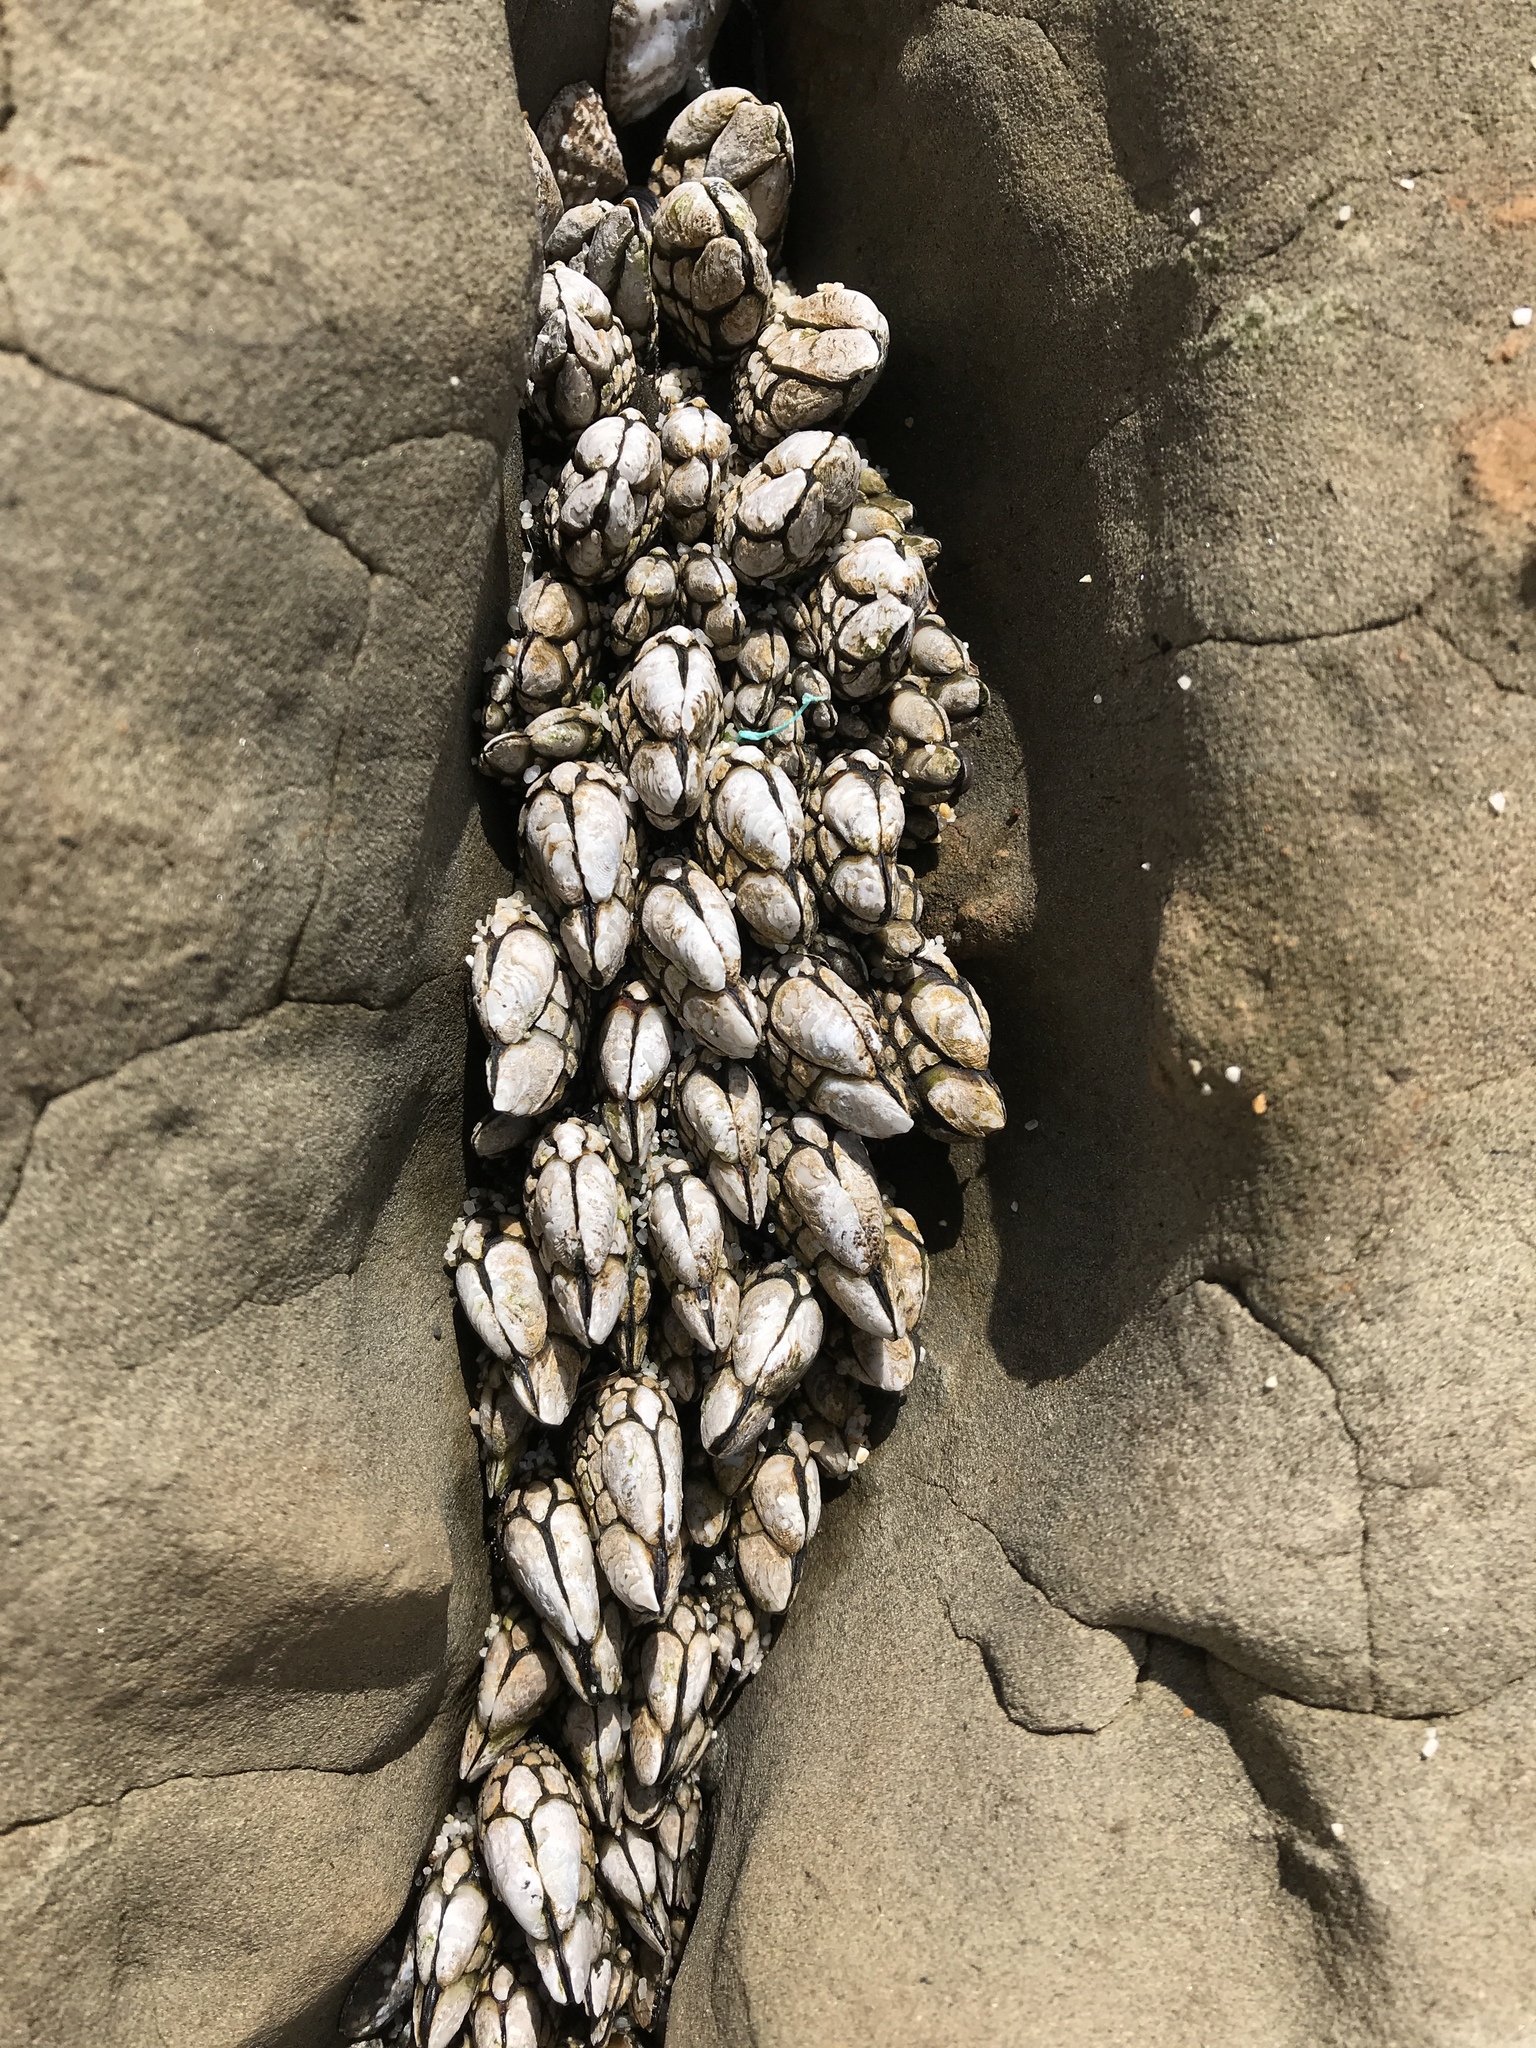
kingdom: Animalia
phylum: Arthropoda
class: Maxillopoda
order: Pedunculata
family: Pollicipedidae
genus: Pollicipes
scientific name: Pollicipes polymerus
